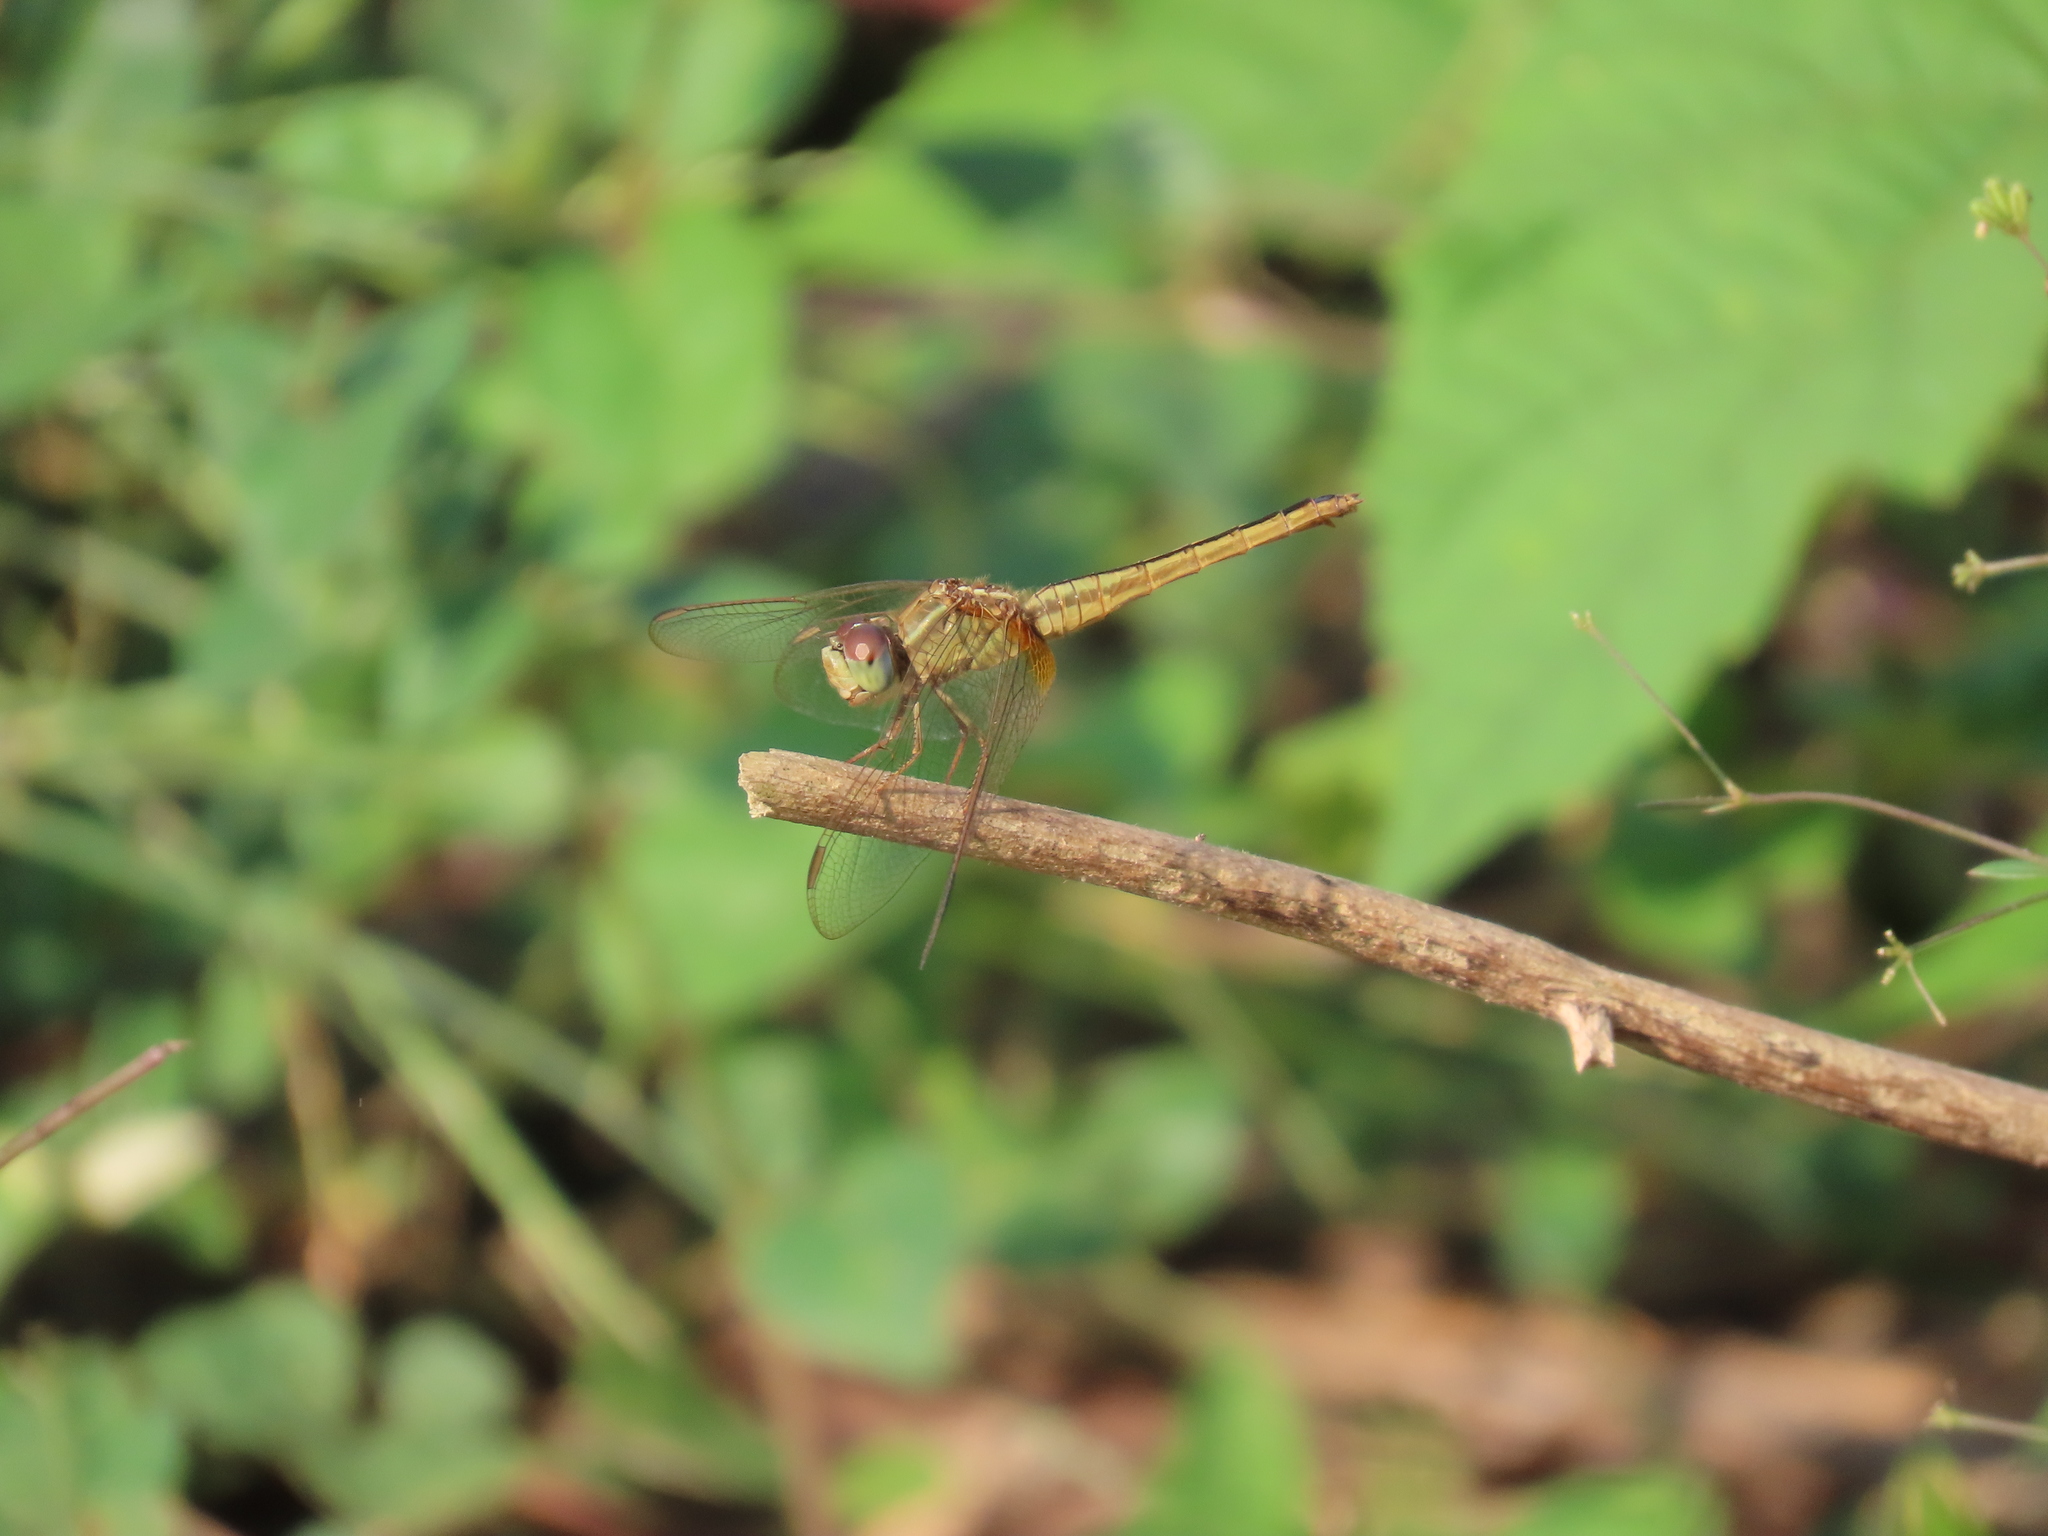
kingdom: Animalia
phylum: Arthropoda
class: Insecta
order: Odonata
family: Libellulidae
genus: Crocothemis
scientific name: Crocothemis servilia
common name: Scarlet skimmer
